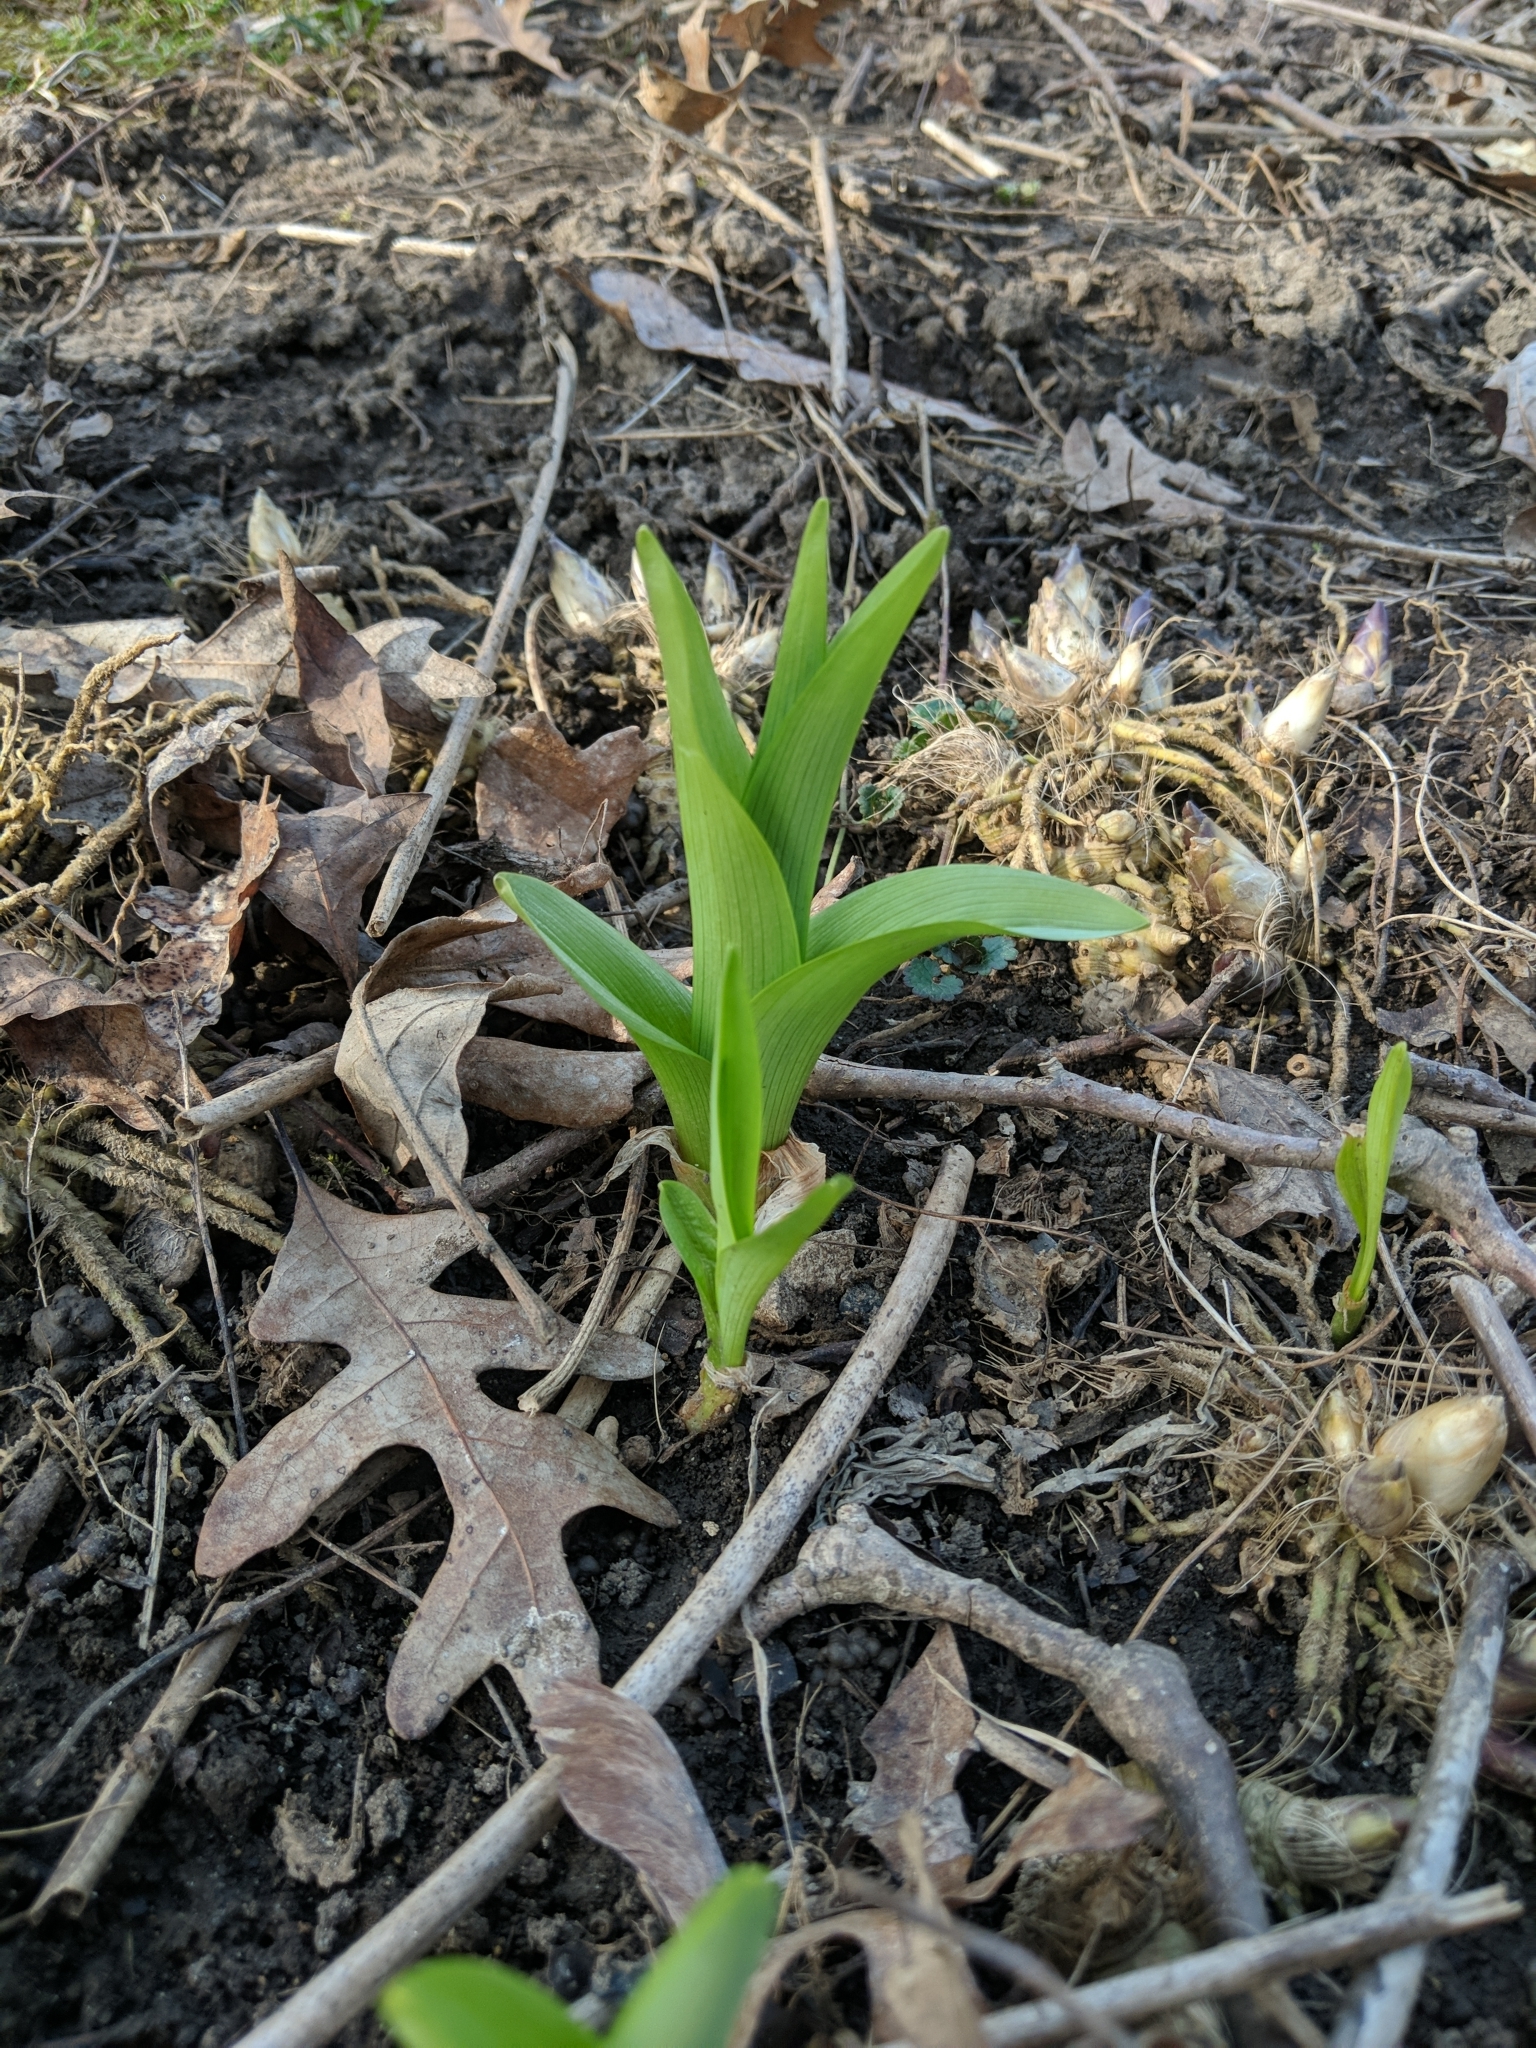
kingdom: Plantae
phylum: Tracheophyta
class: Liliopsida
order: Asparagales
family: Asphodelaceae
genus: Hemerocallis
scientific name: Hemerocallis fulva
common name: Orange day-lily
